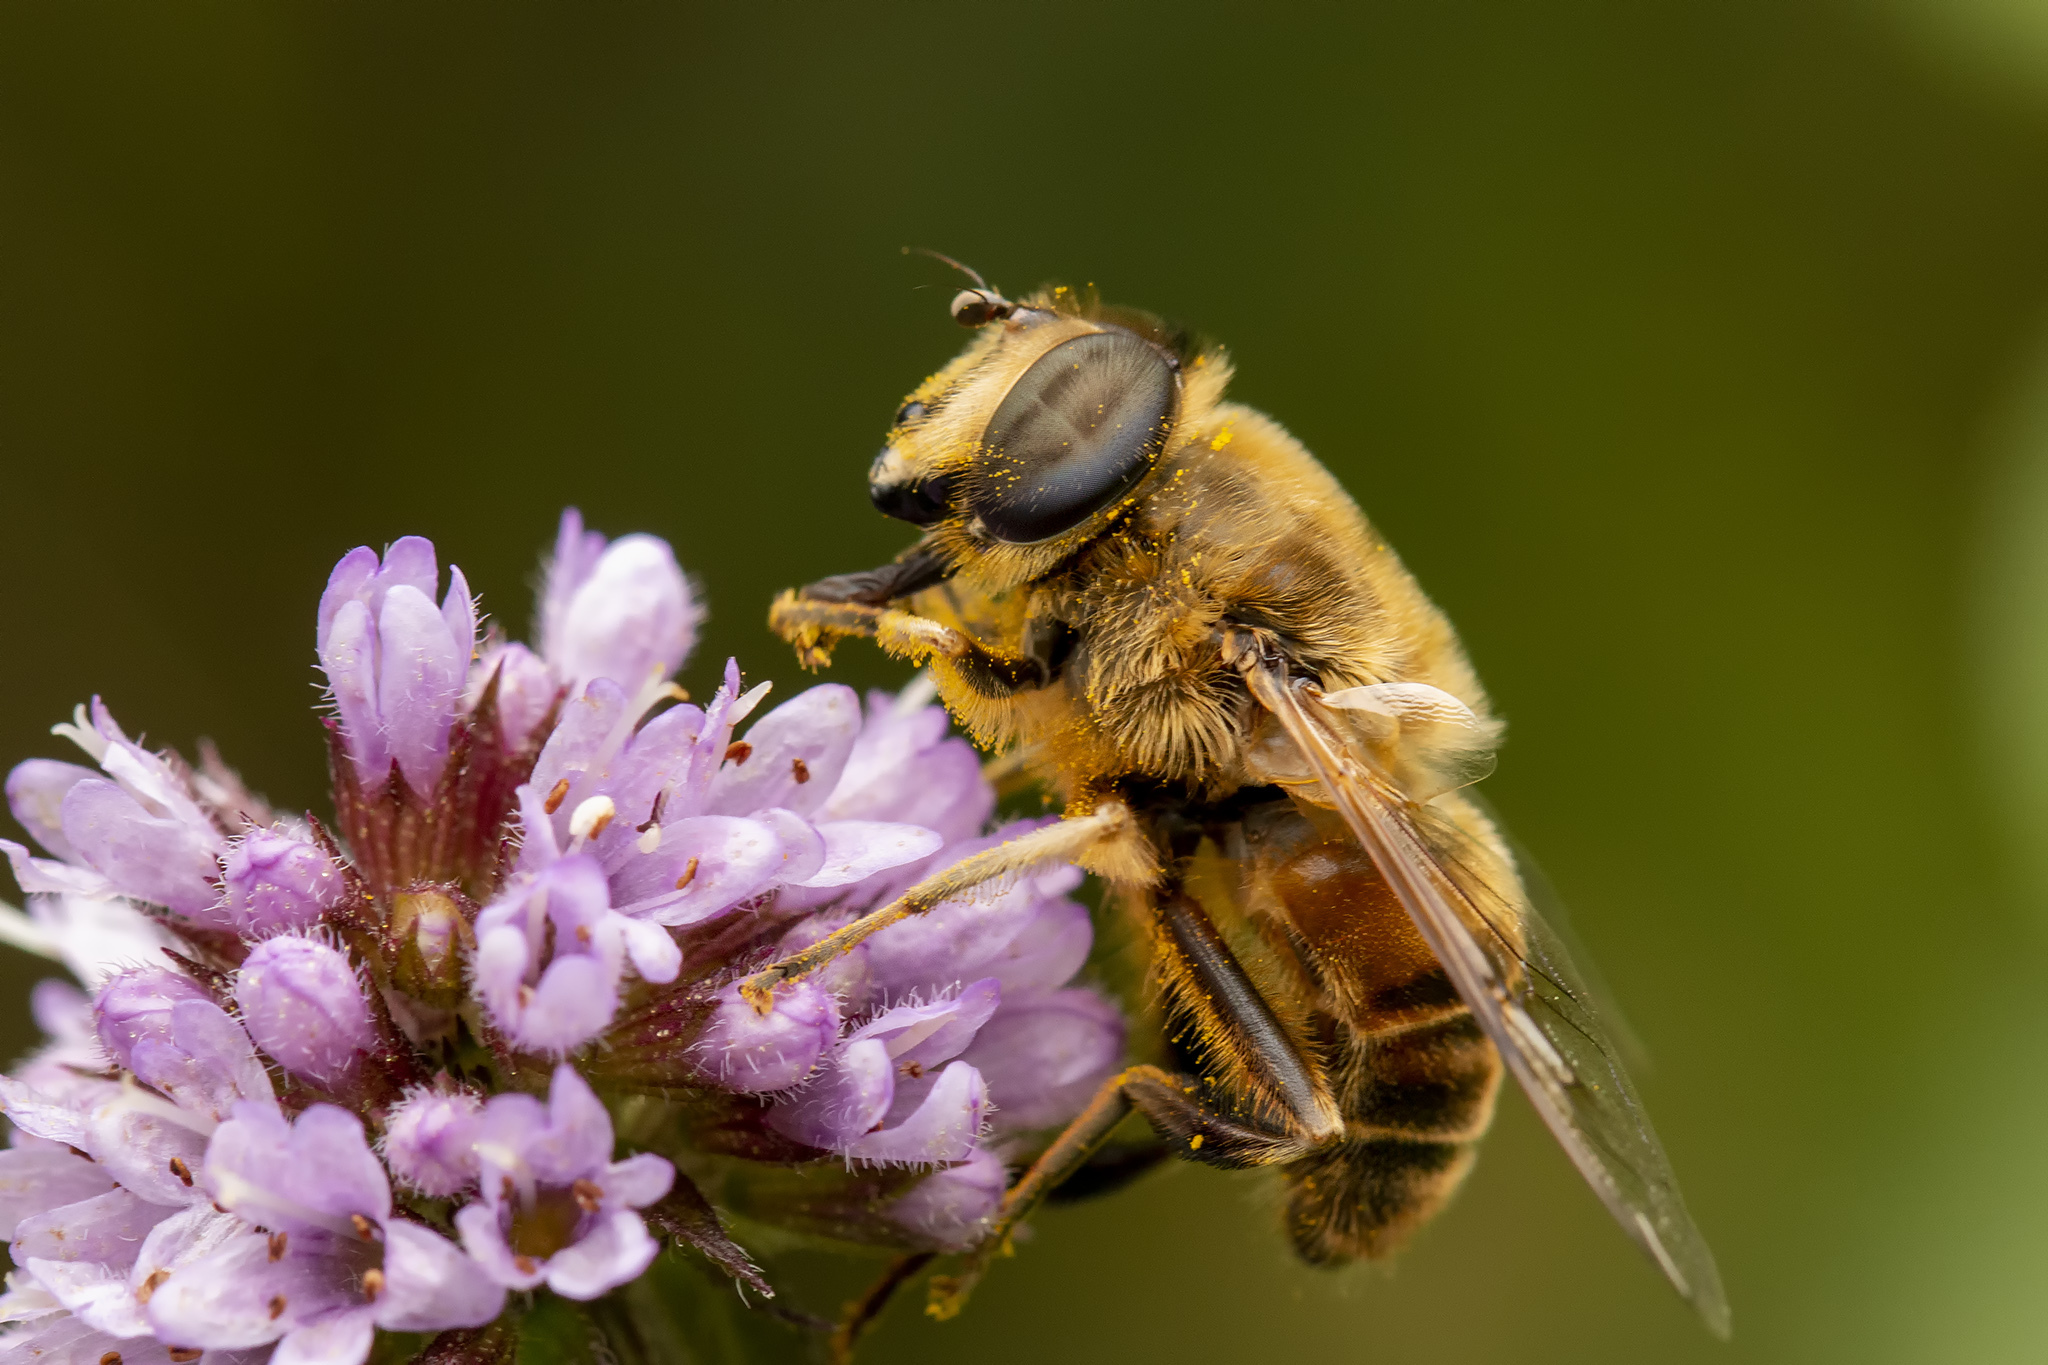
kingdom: Animalia
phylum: Arthropoda
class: Insecta
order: Diptera
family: Syrphidae
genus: Eristalis
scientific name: Eristalis tenax
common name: Drone fly
